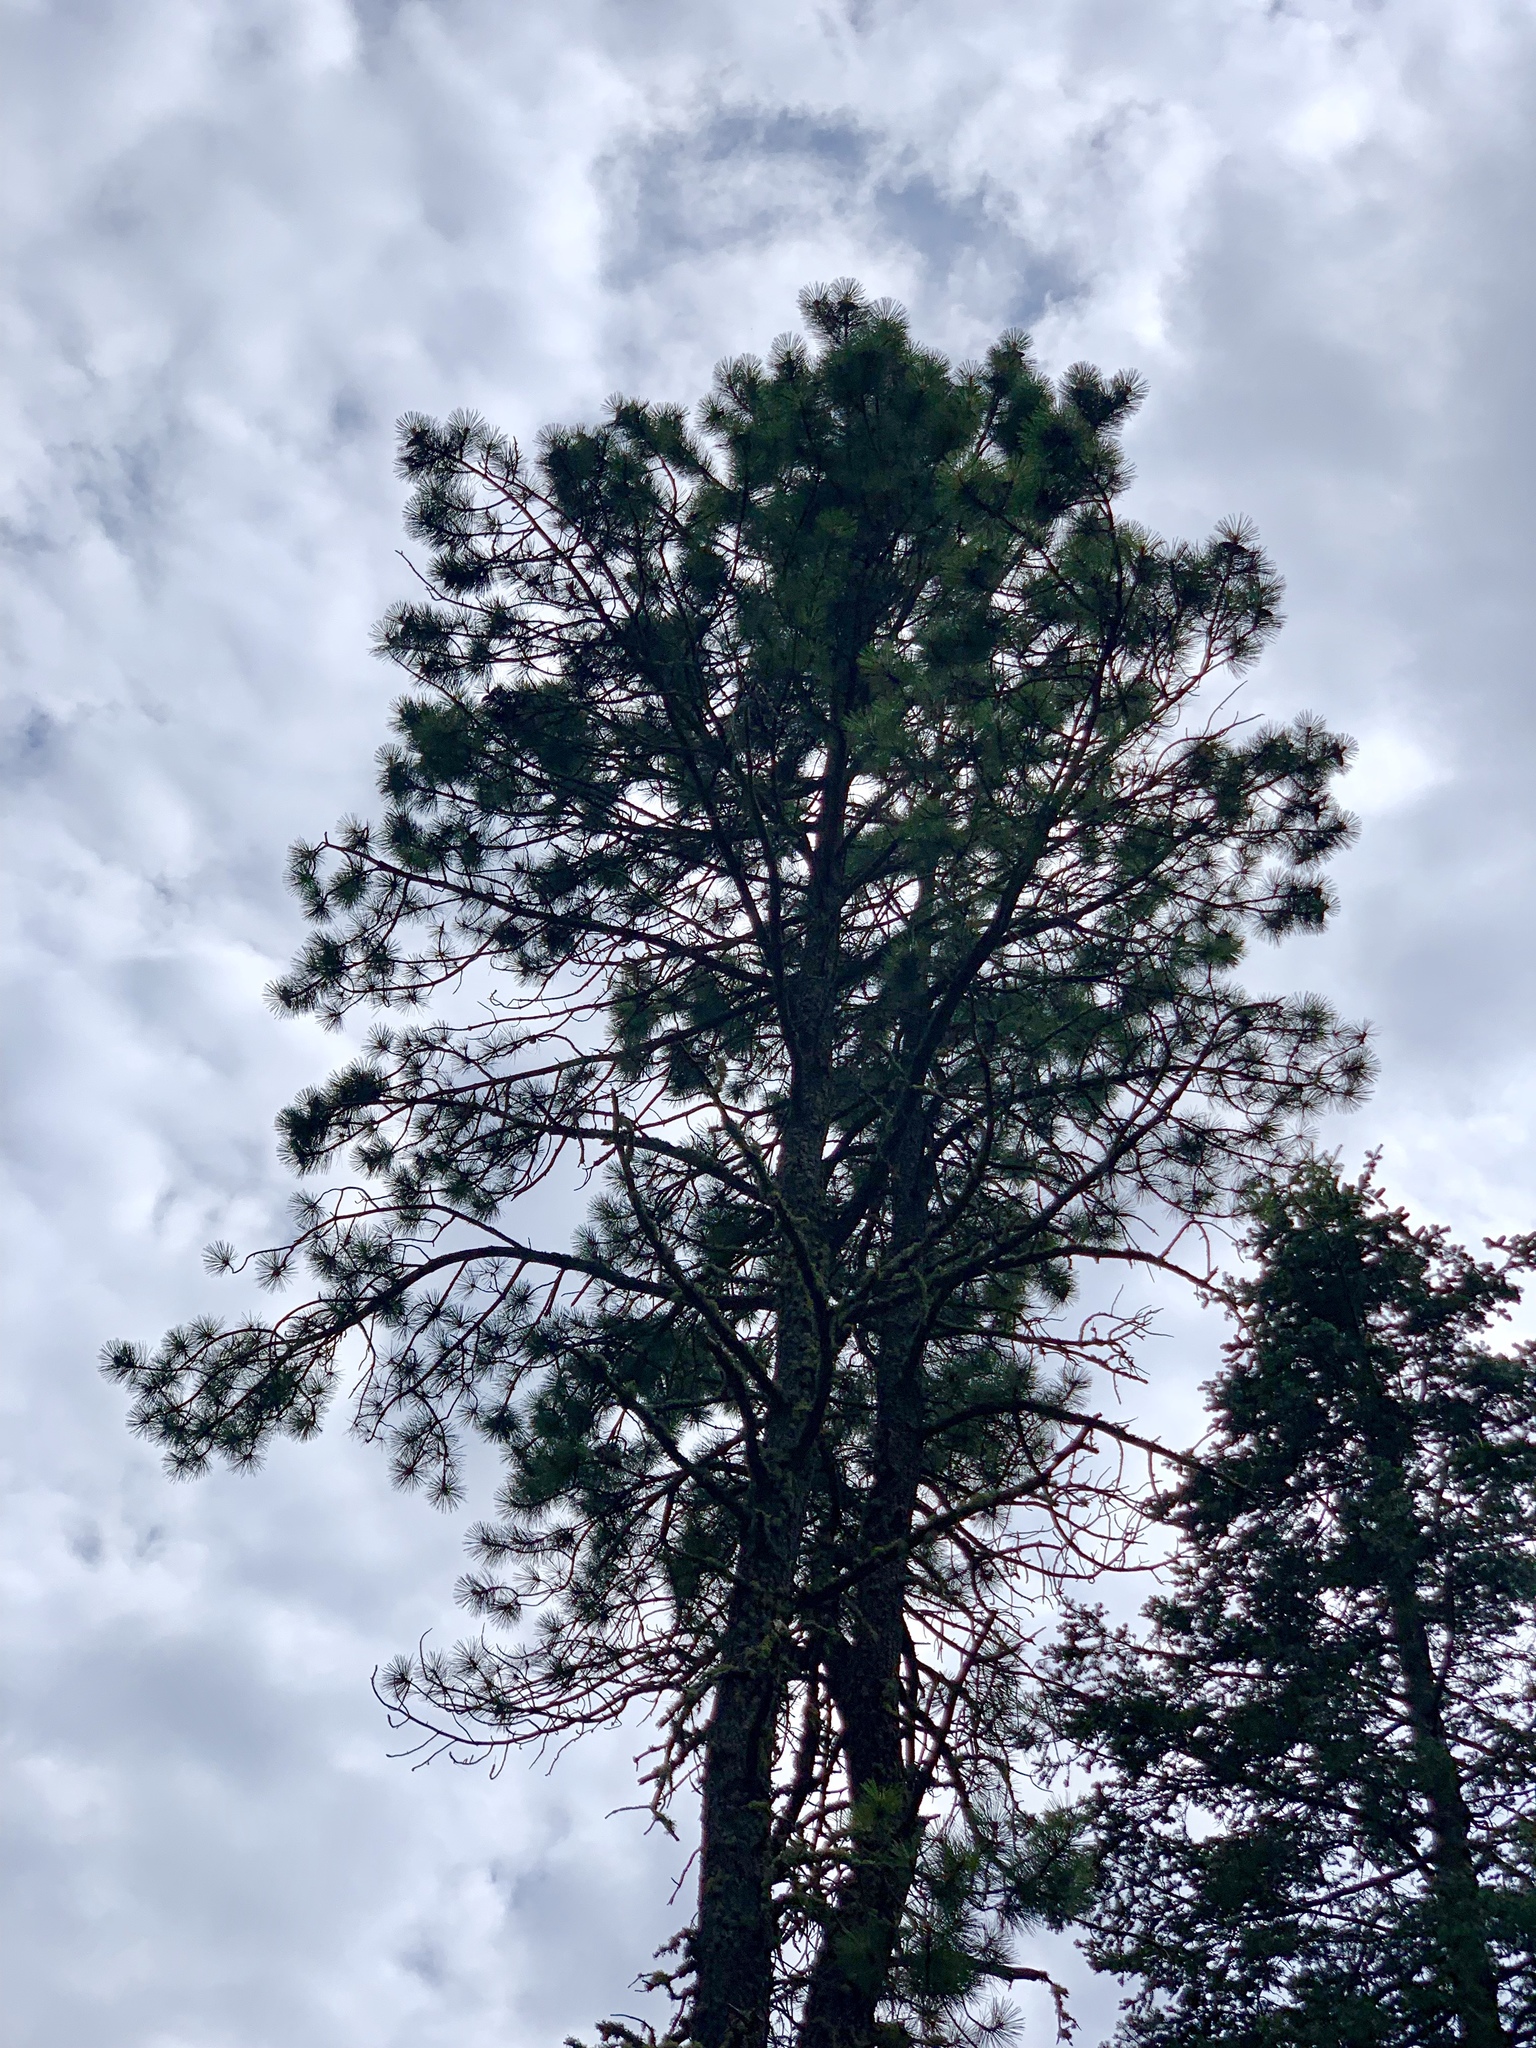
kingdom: Plantae
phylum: Tracheophyta
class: Pinopsida
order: Pinales
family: Pinaceae
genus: Pinus
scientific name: Pinus ponderosa
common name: Western yellow-pine
